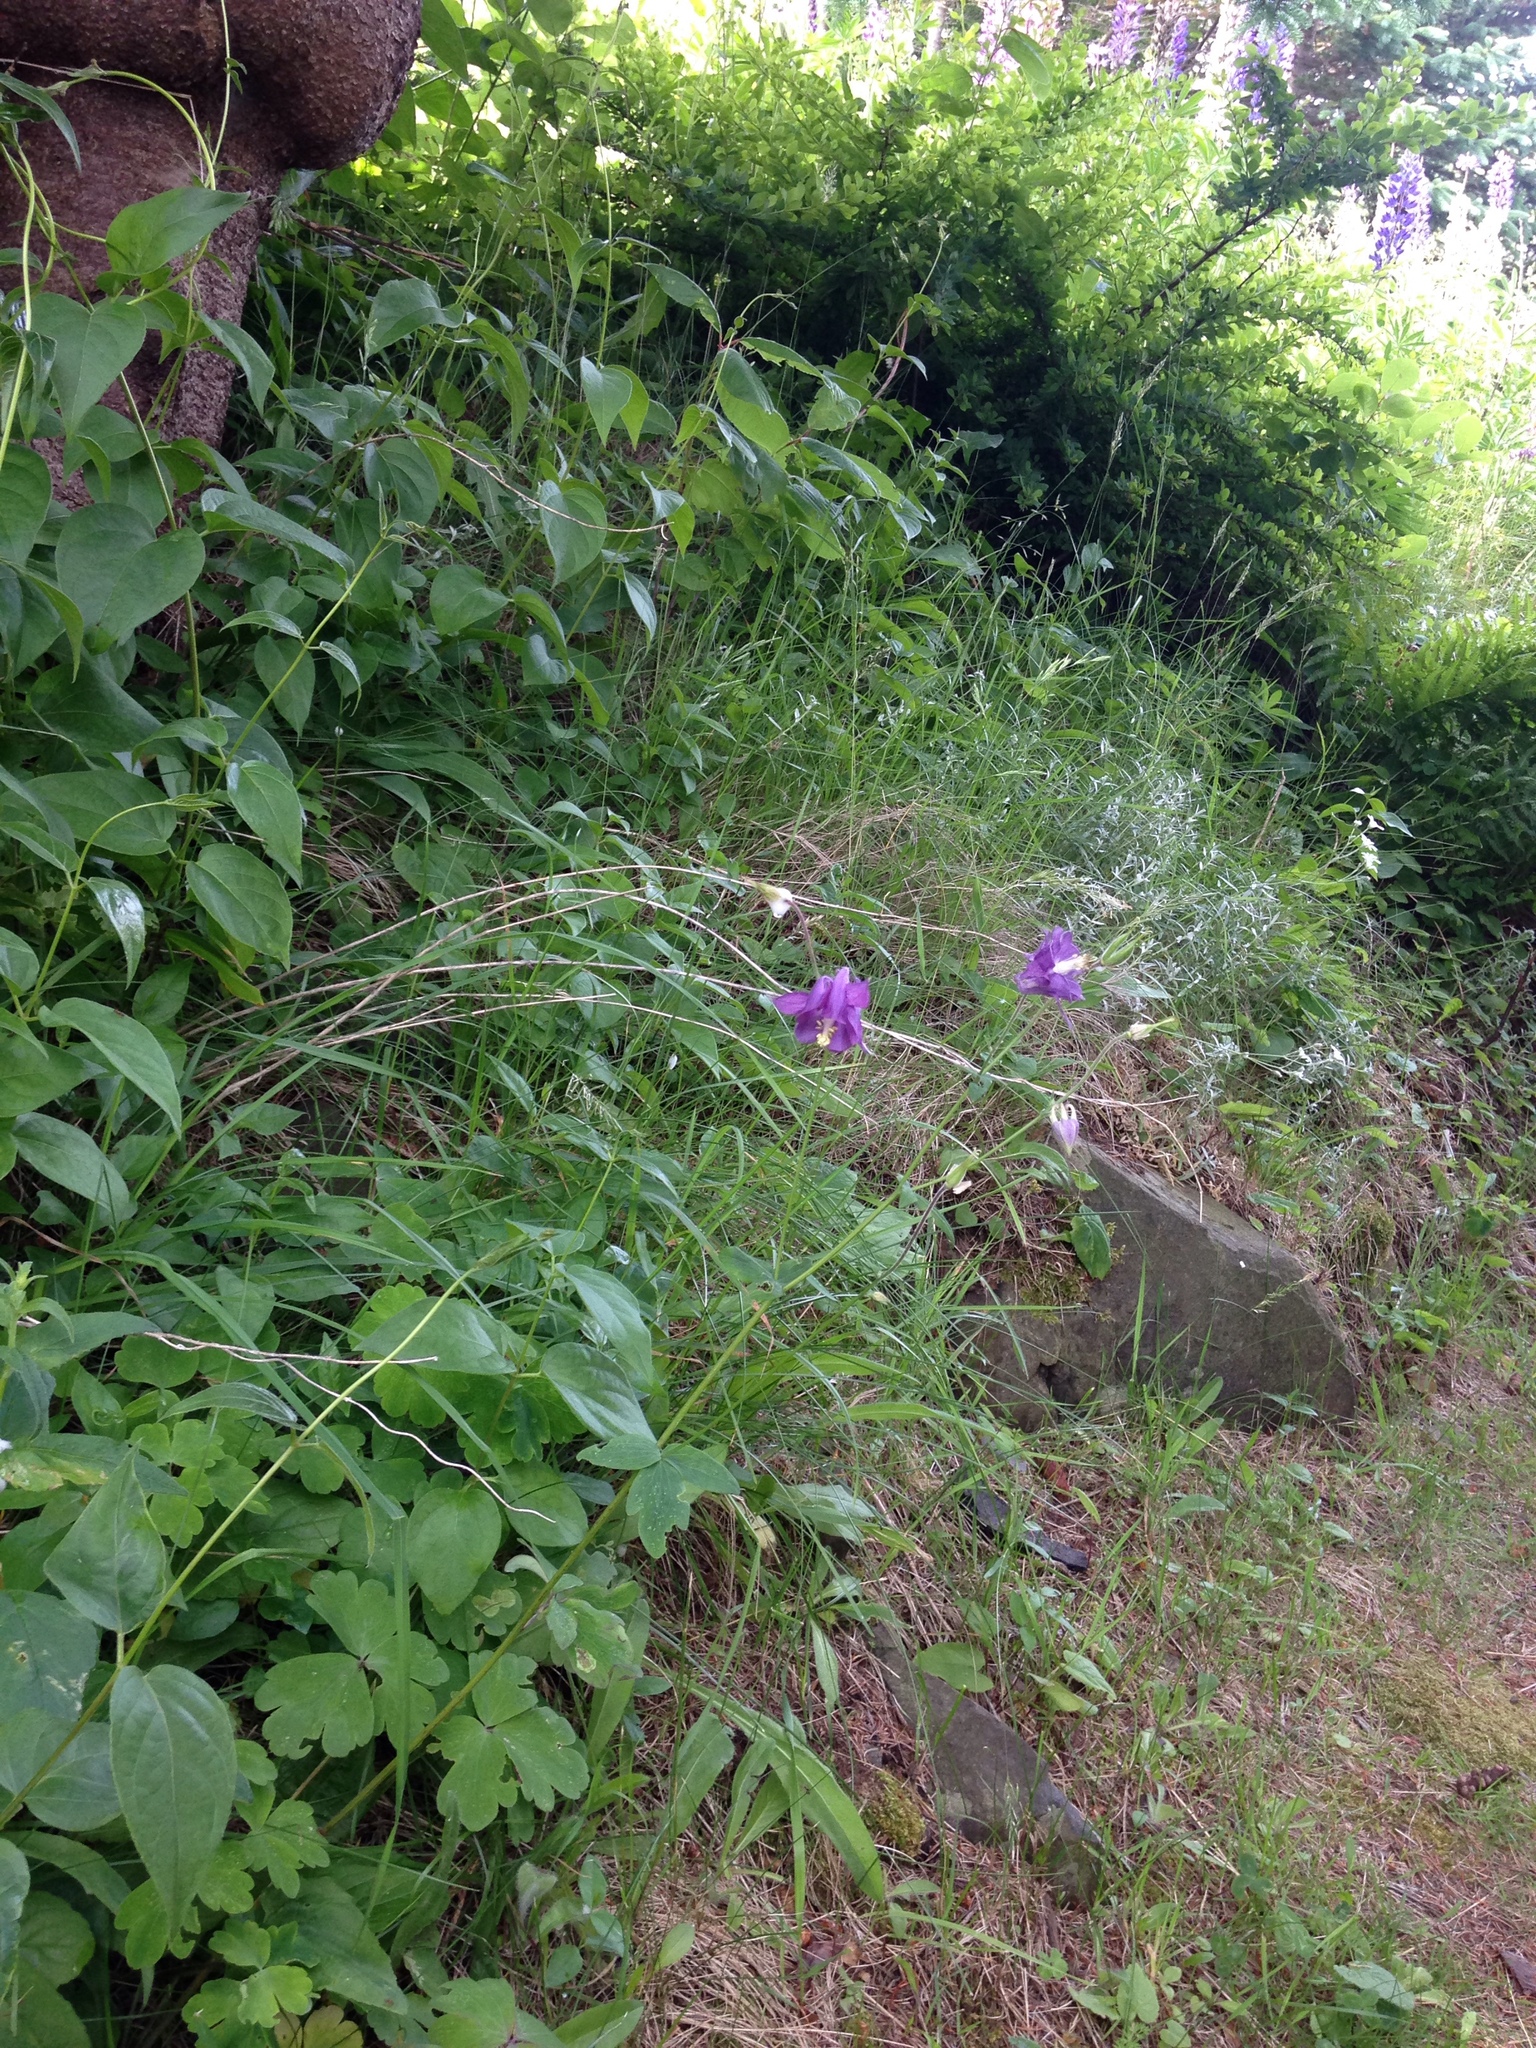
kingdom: Plantae
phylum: Tracheophyta
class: Magnoliopsida
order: Ranunculales
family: Ranunculaceae
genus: Aquilegia
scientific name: Aquilegia vulgaris
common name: Columbine
